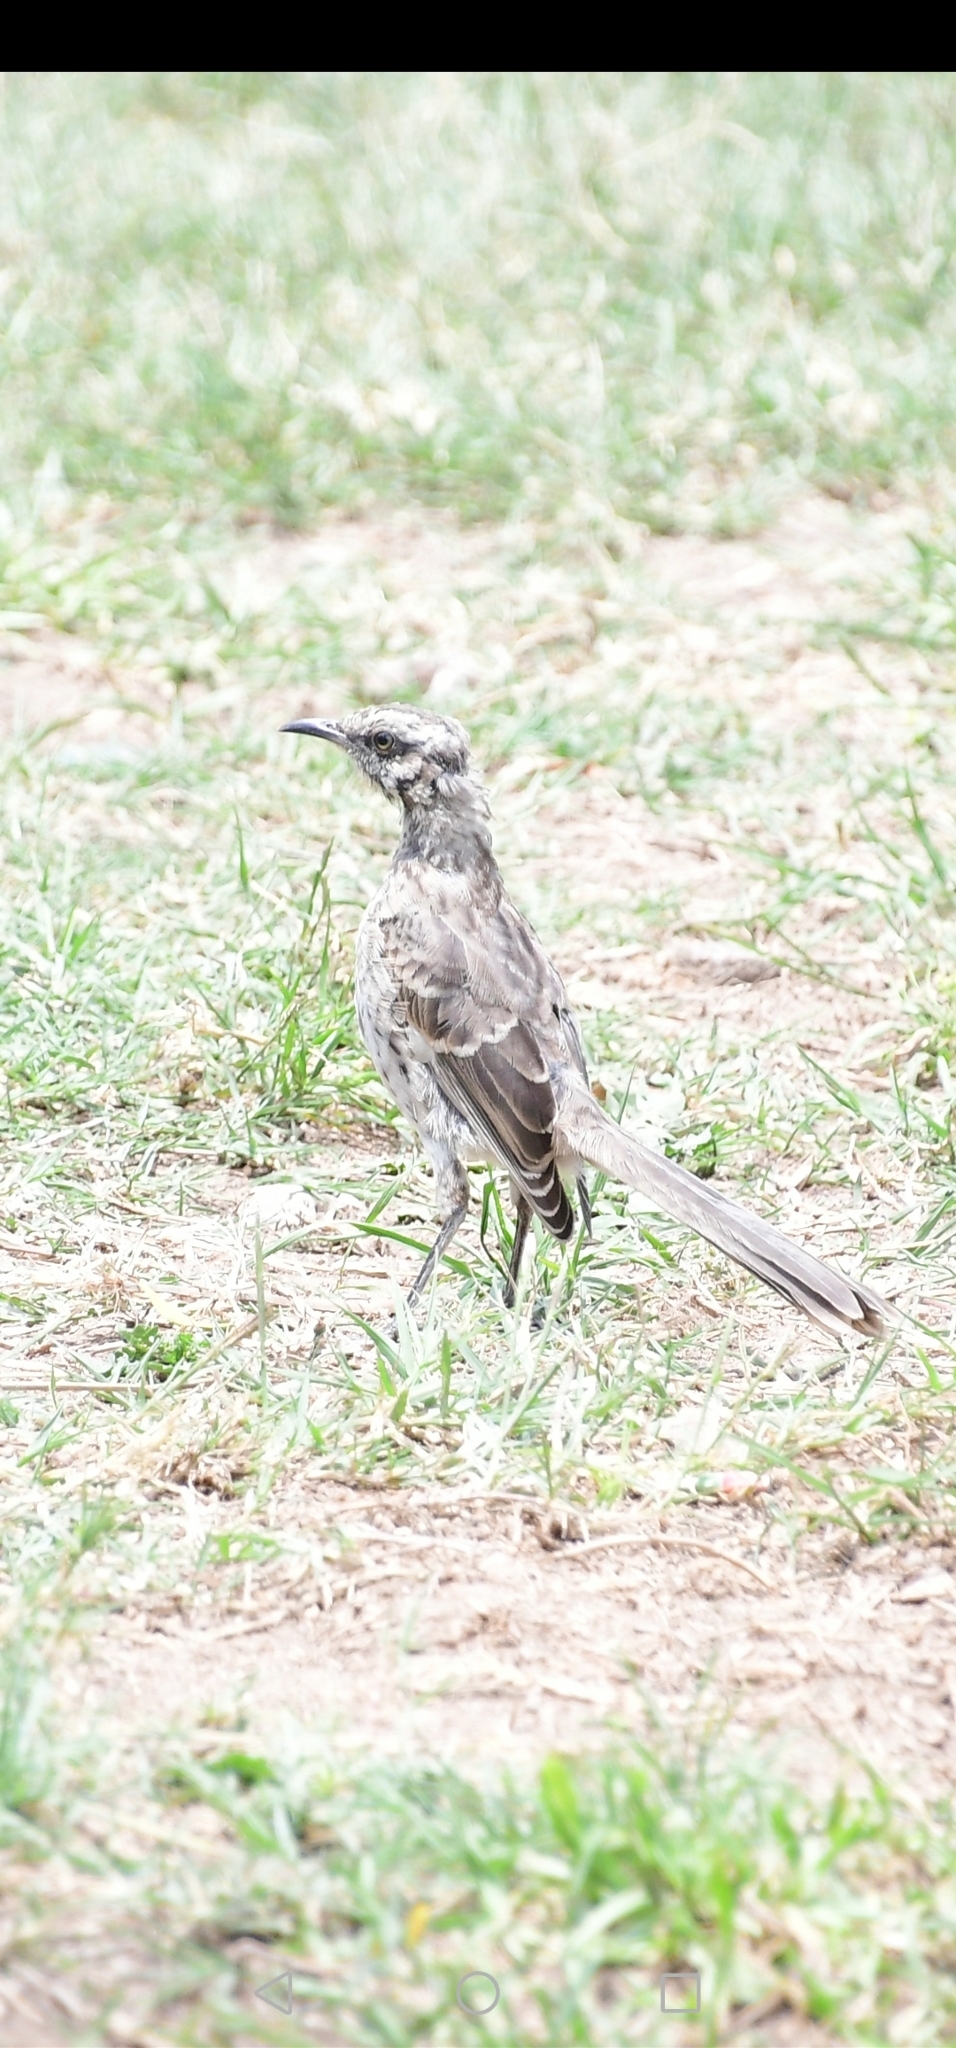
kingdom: Animalia
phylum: Chordata
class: Aves
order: Passeriformes
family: Mimidae
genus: Mimus
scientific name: Mimus longicaudatus
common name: Long-tailed mockingbird
